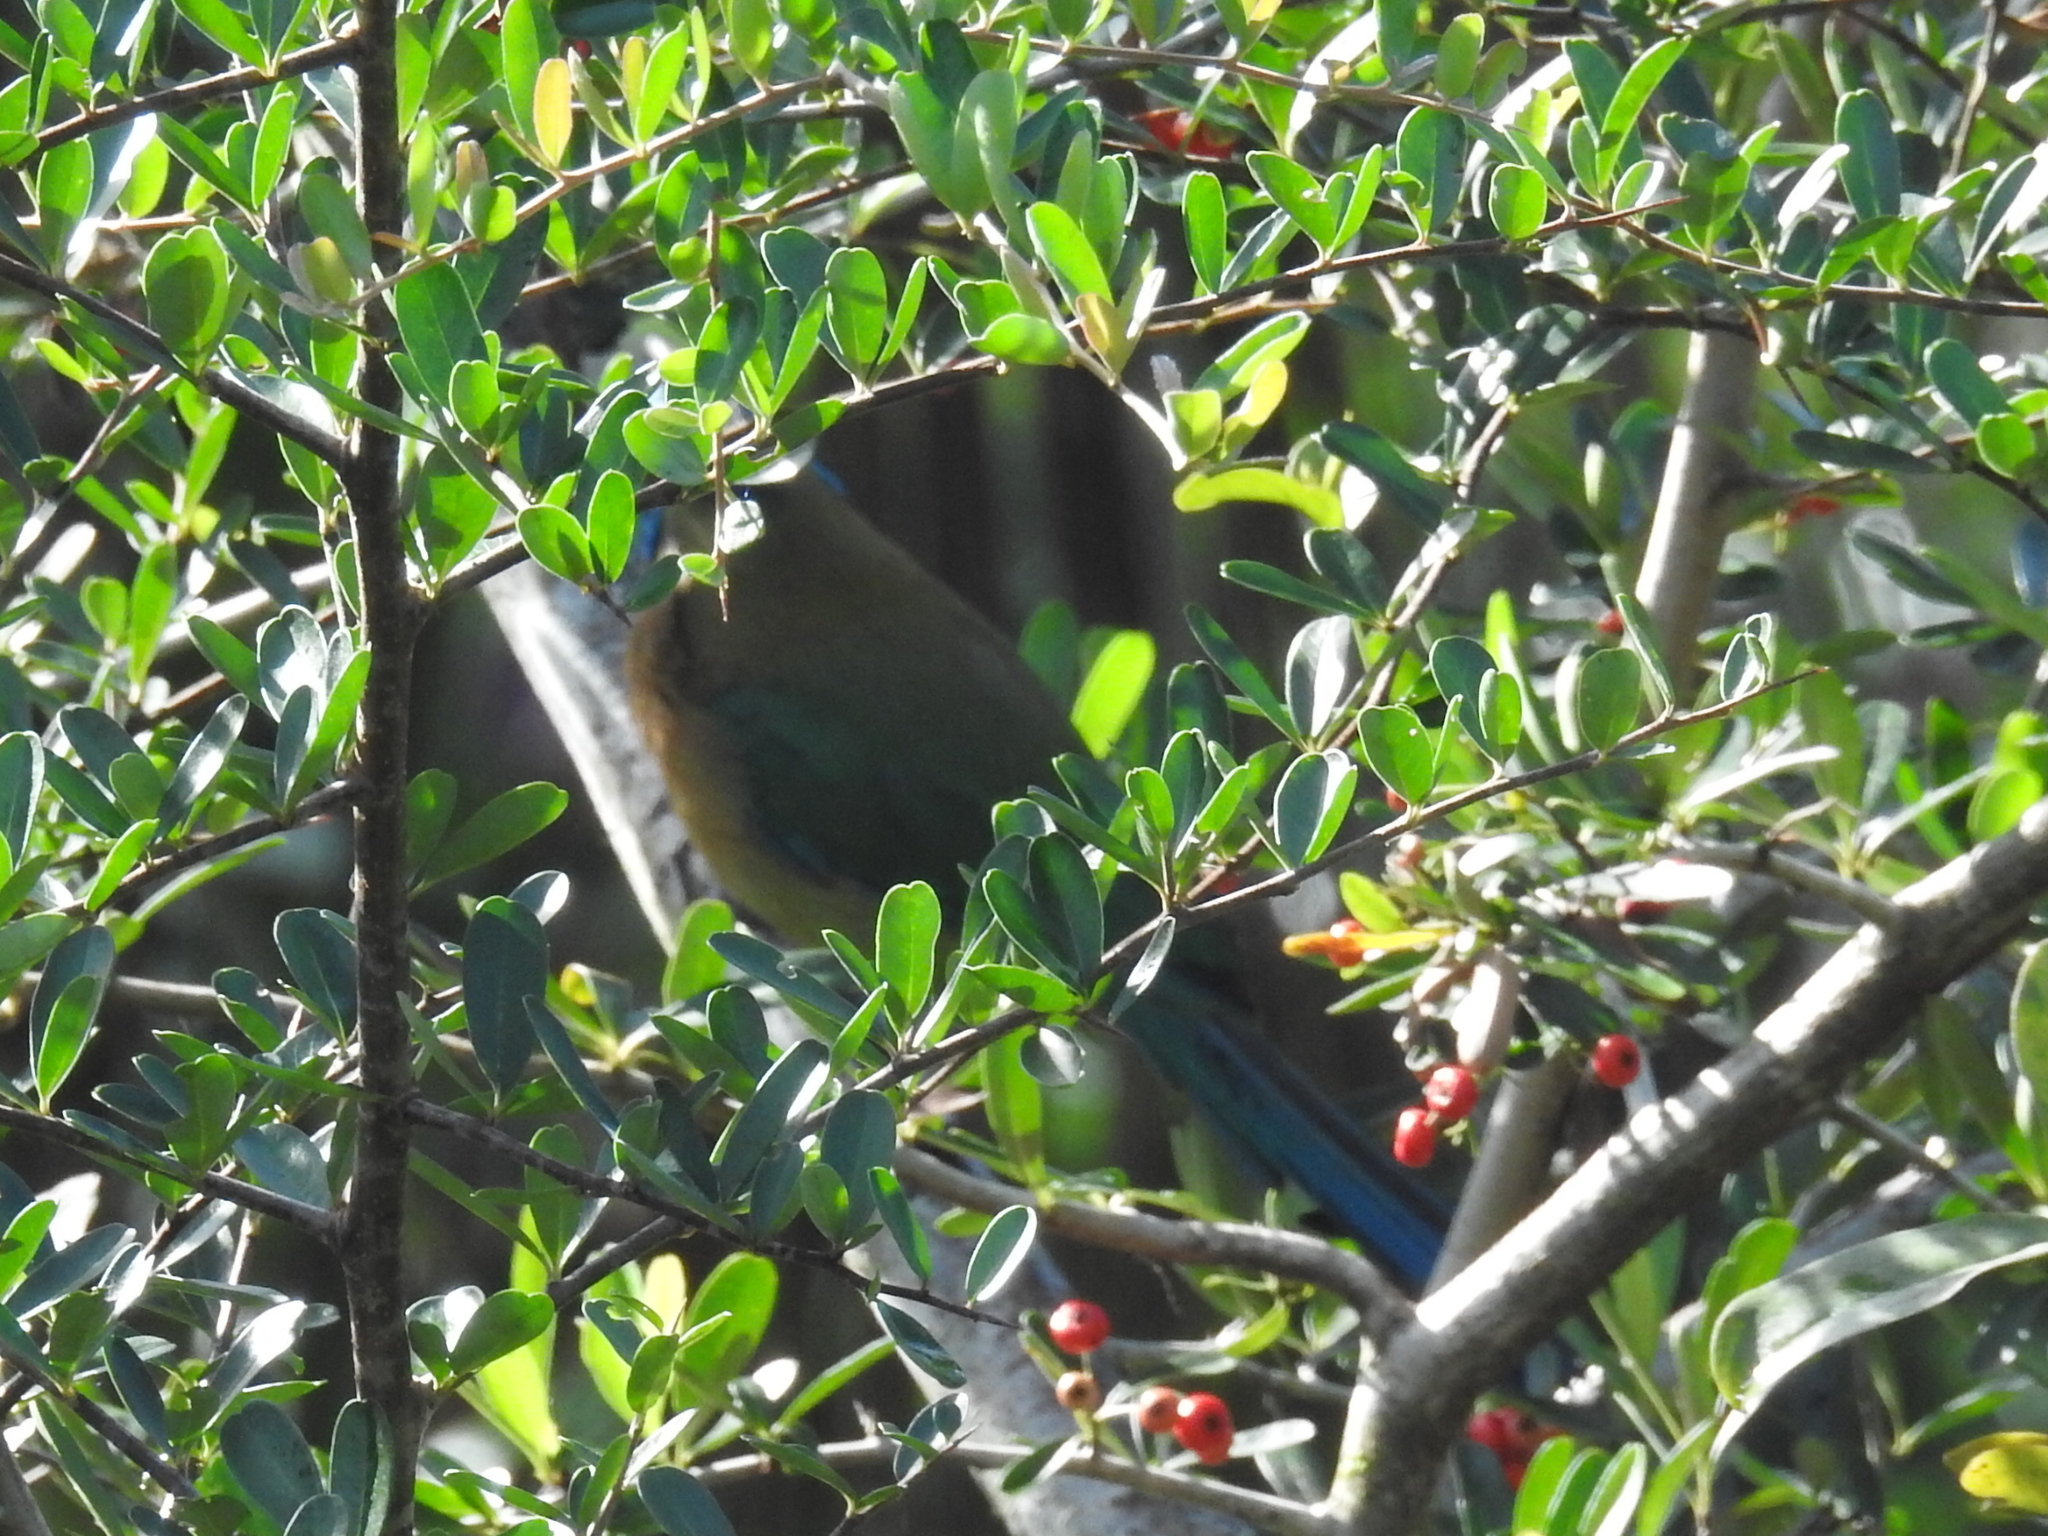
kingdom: Animalia
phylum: Chordata
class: Aves
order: Coraciiformes
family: Momotidae
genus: Momotus
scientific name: Momotus lessonii
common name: Lesson's motmot
